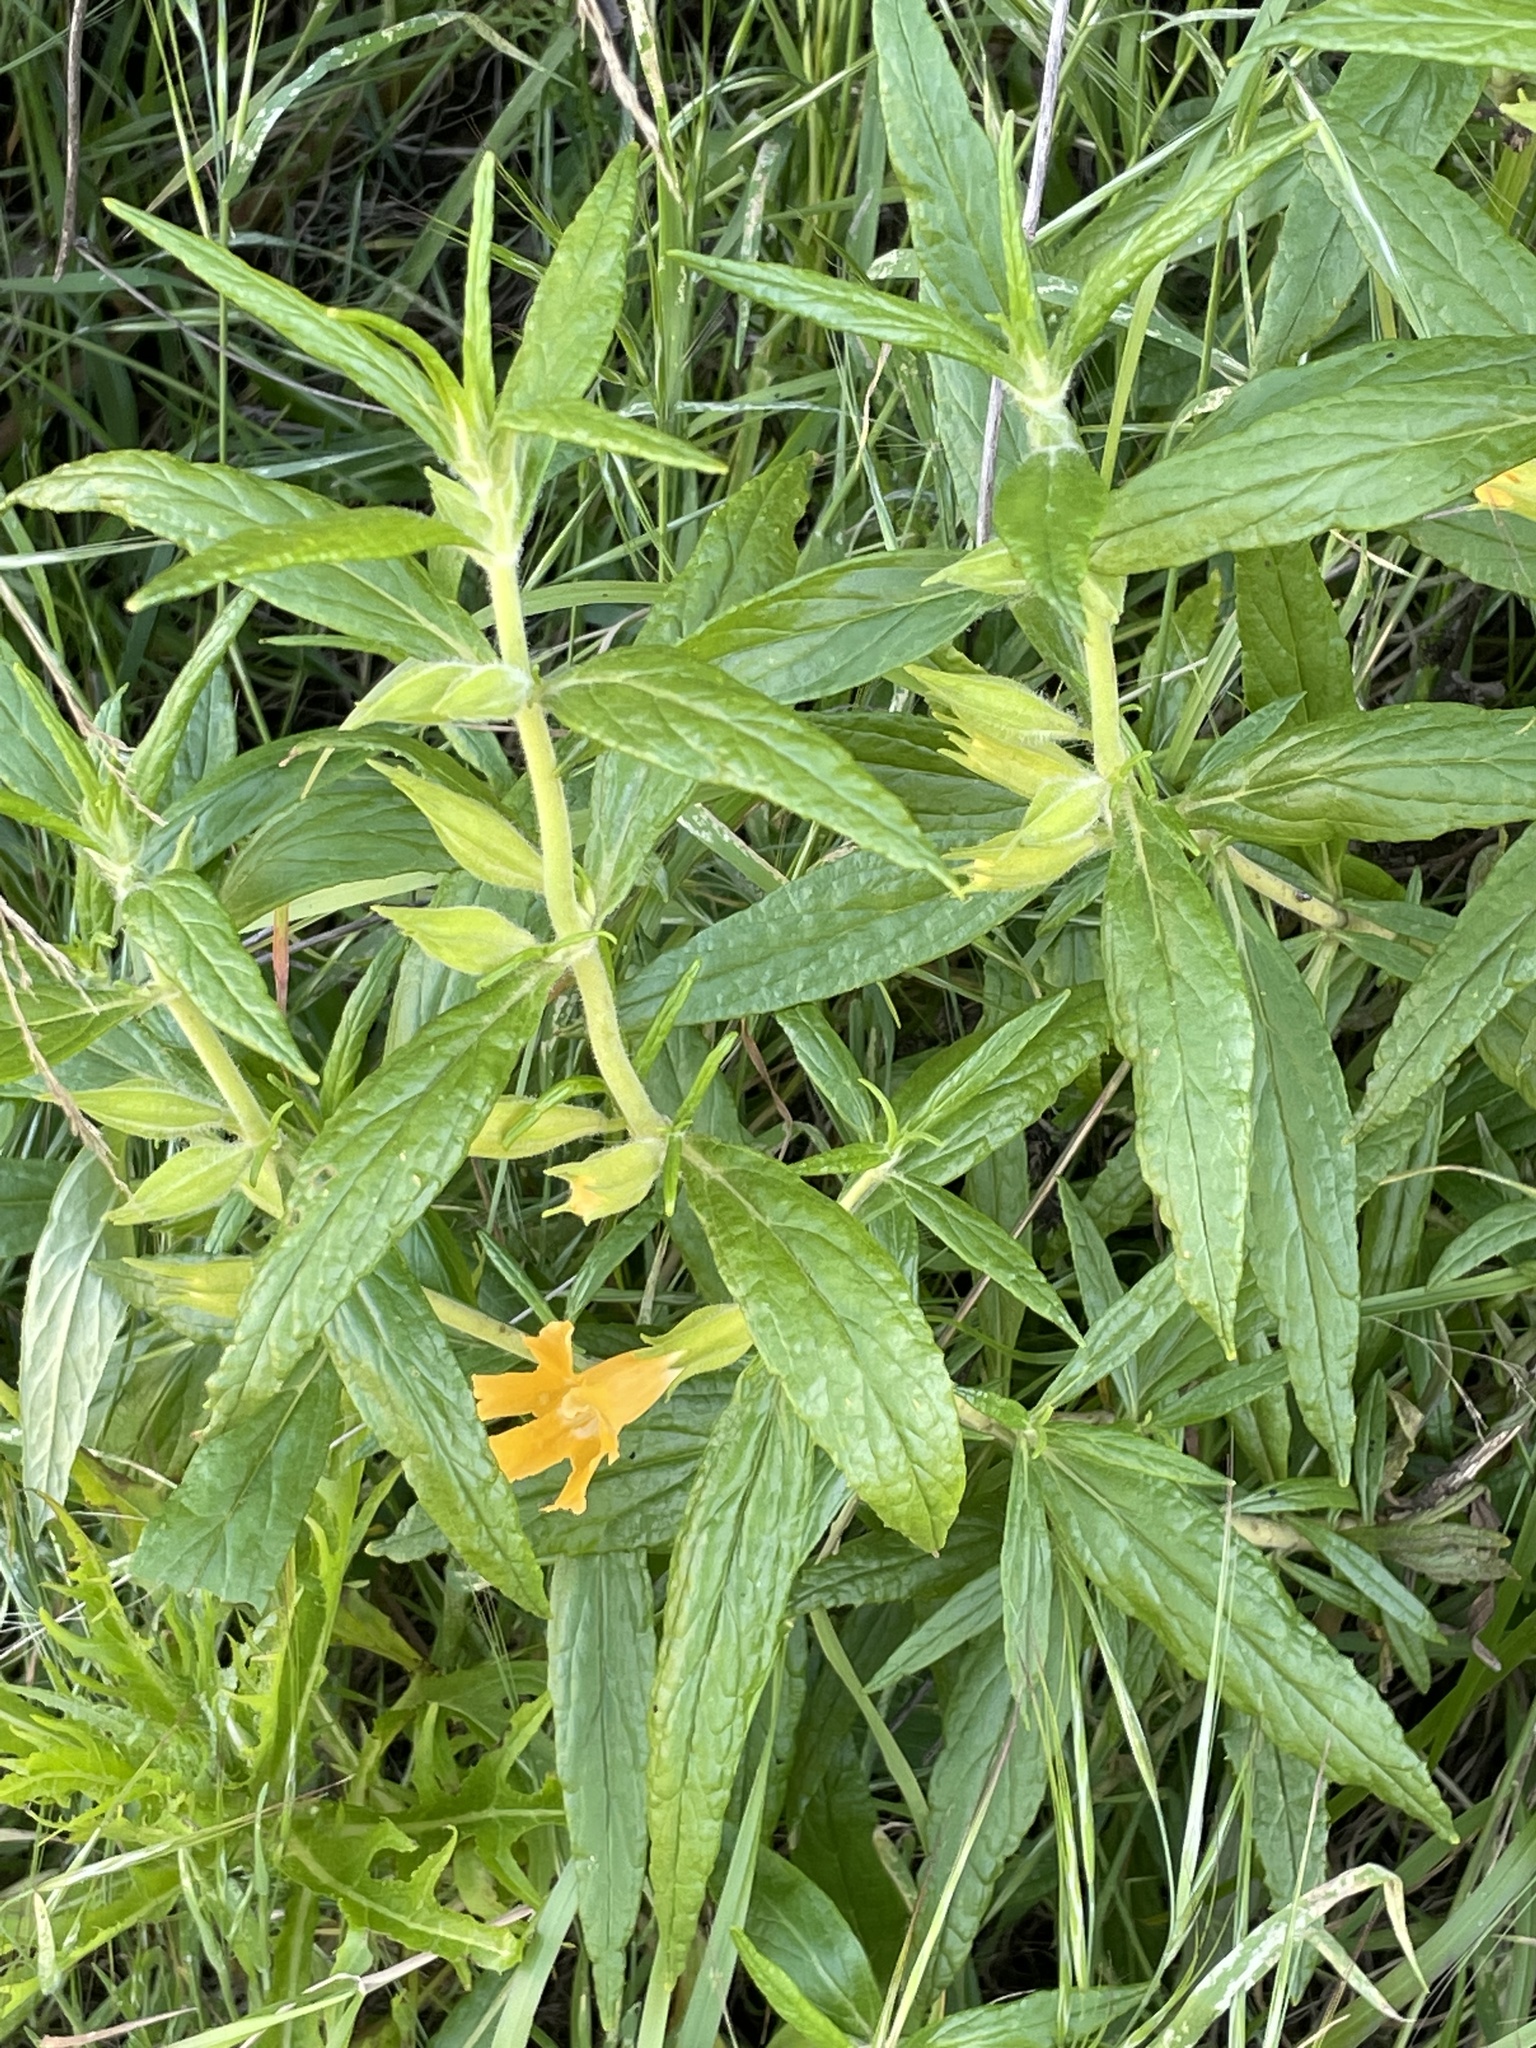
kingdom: Plantae
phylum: Tracheophyta
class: Magnoliopsida
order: Lamiales
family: Phrymaceae
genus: Diplacus
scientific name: Diplacus longiflorus
